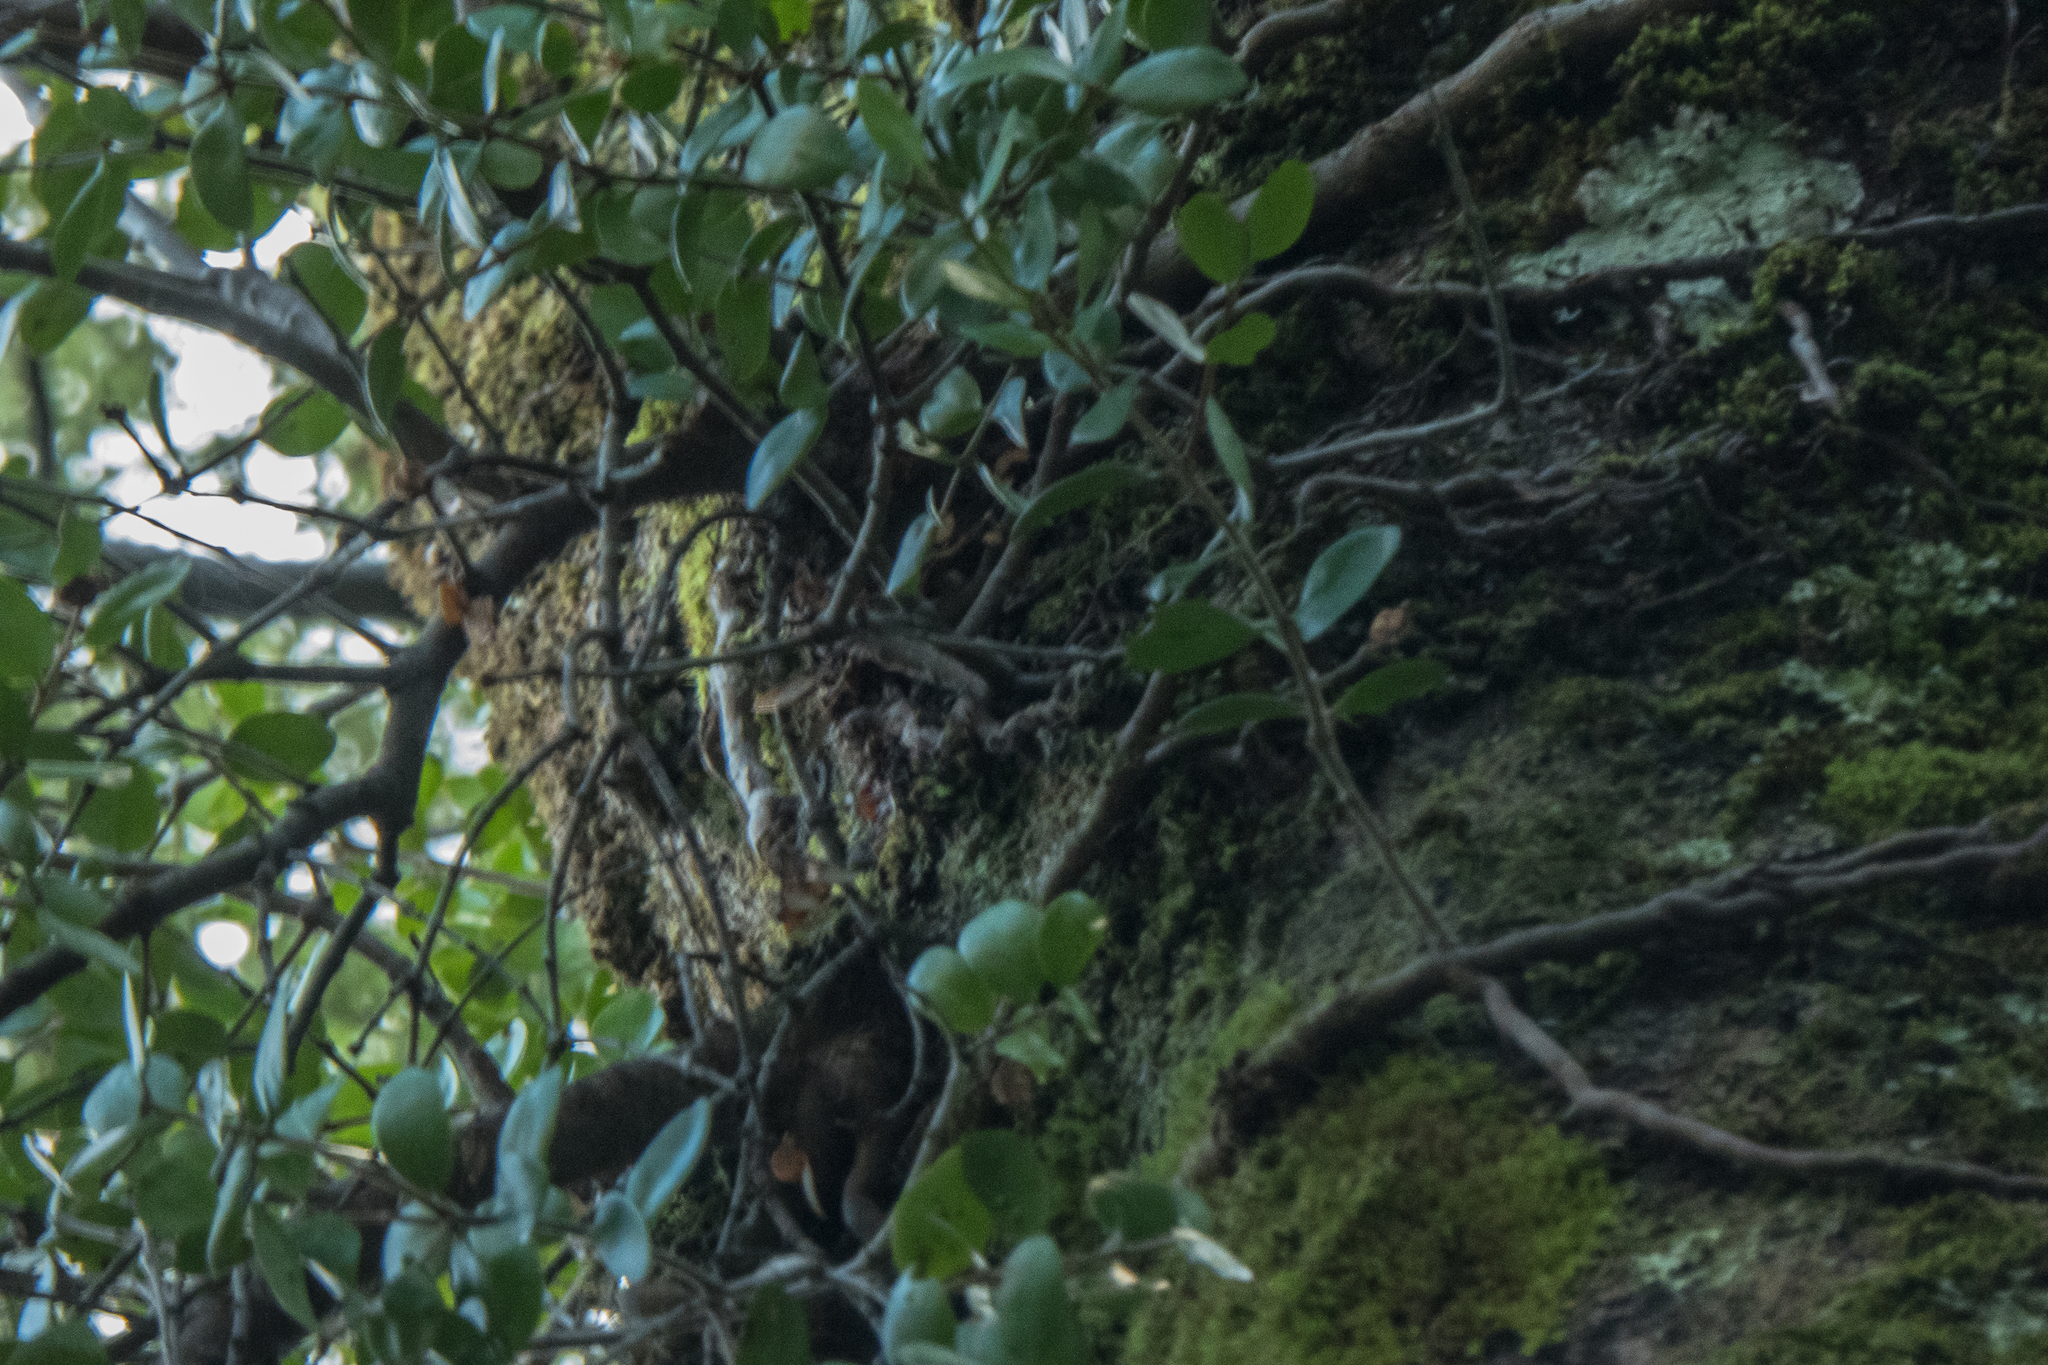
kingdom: Plantae
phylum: Tracheophyta
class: Magnoliopsida
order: Santalales
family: Loranthaceae
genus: Peraxilla
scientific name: Peraxilla tetrapetala
